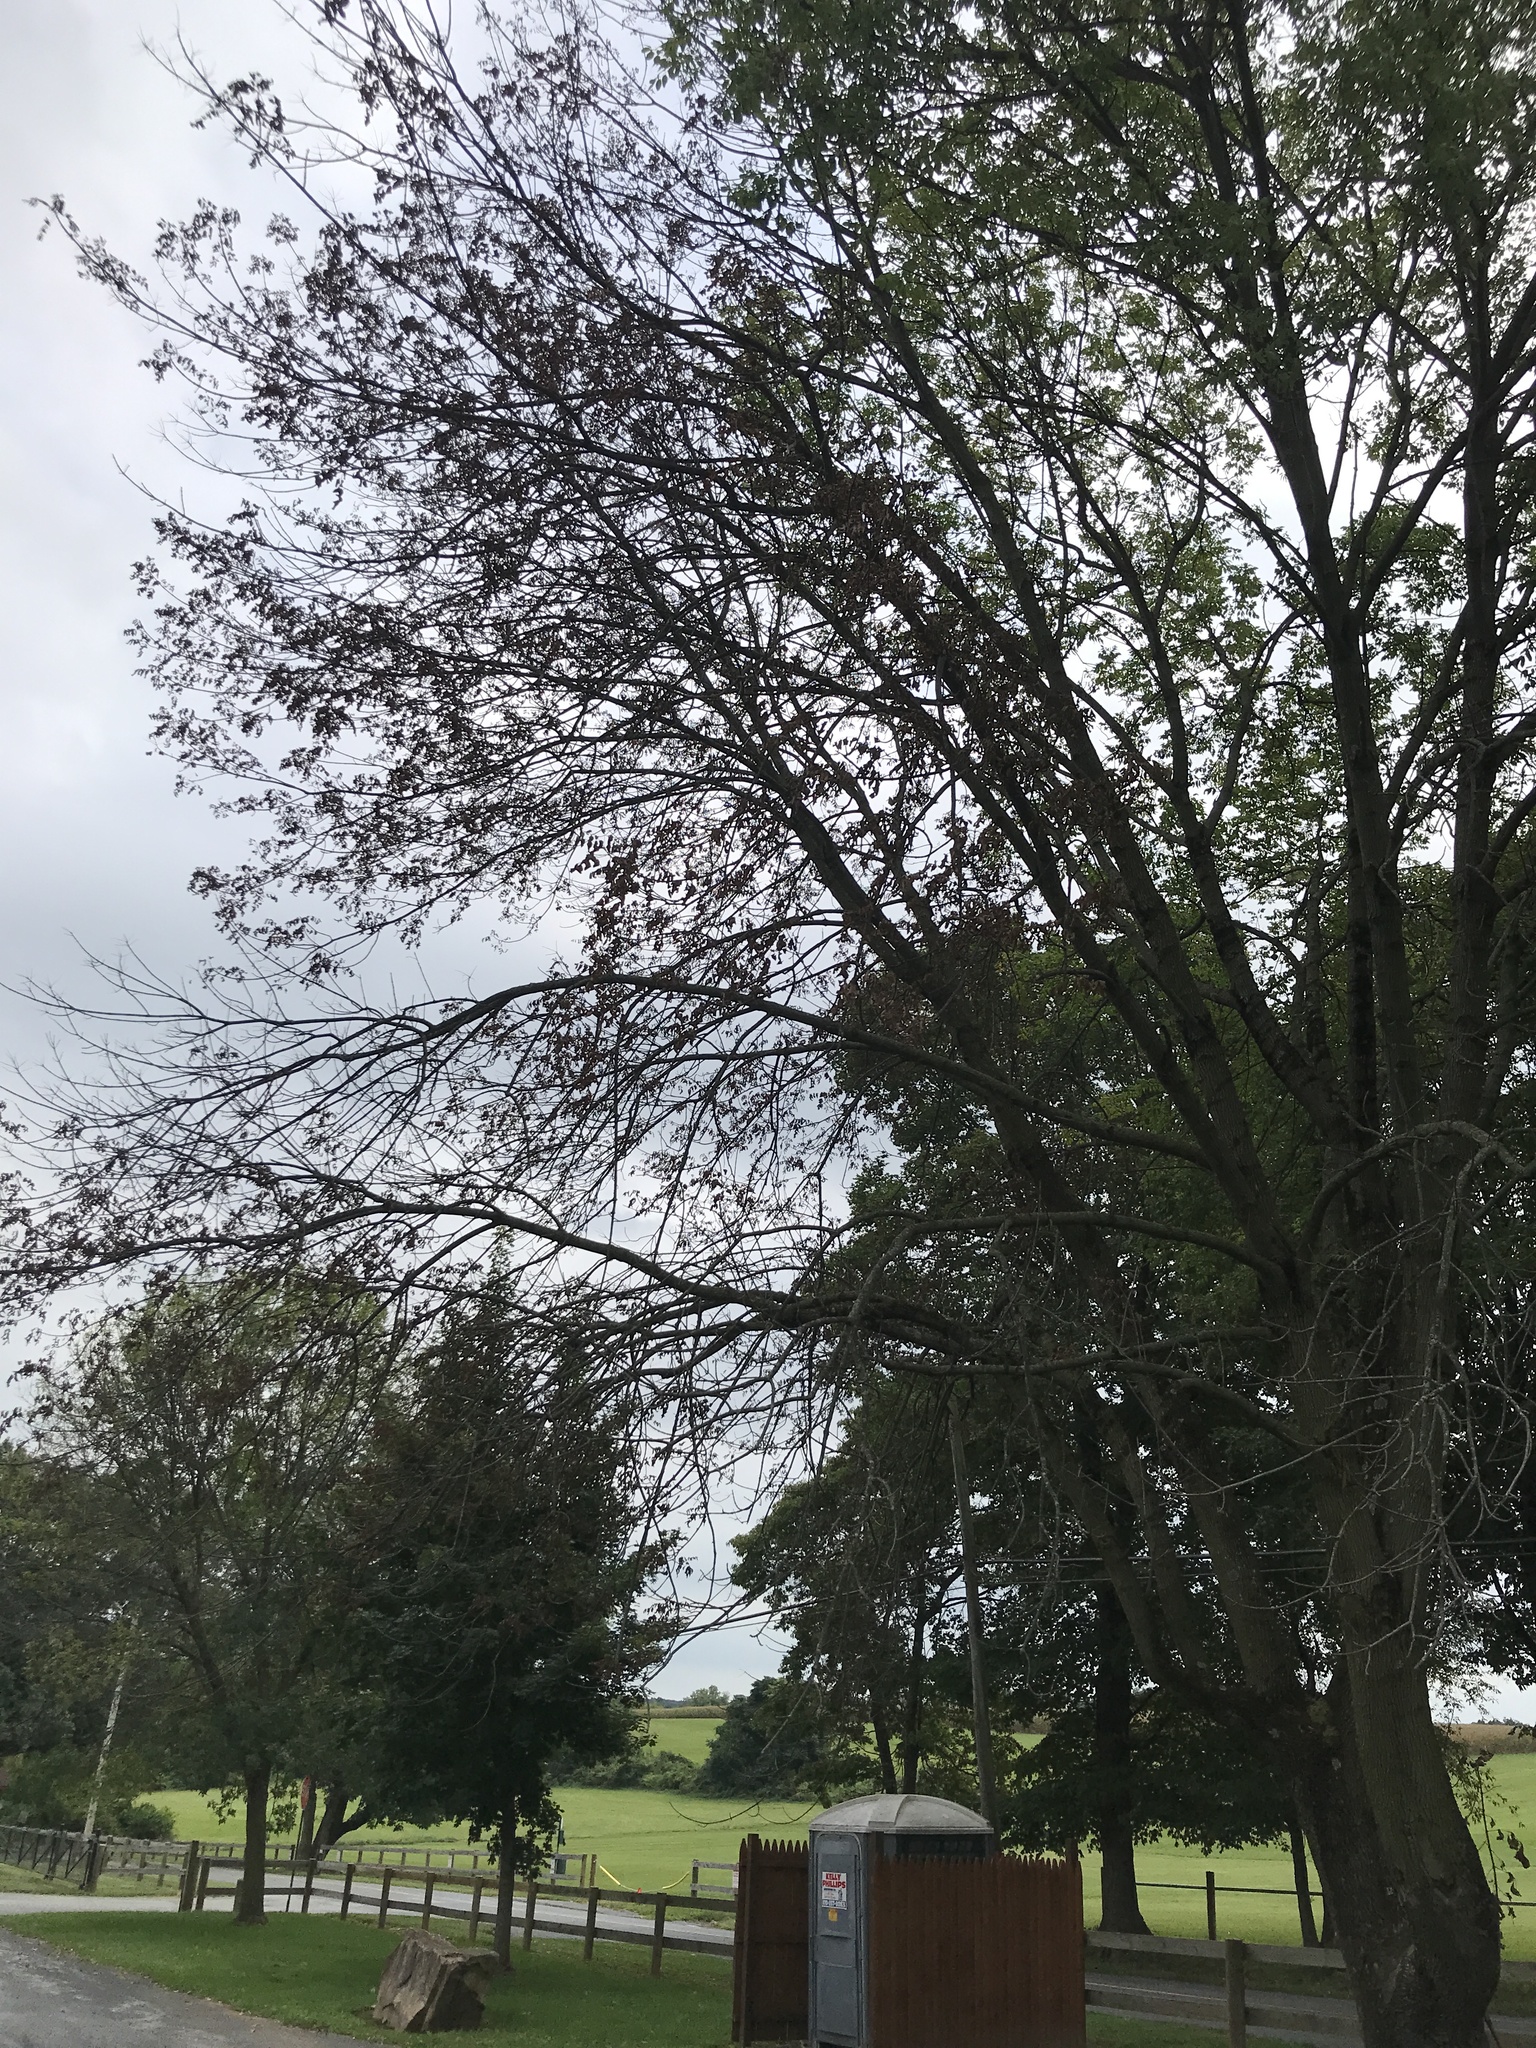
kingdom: Animalia
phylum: Arthropoda
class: Insecta
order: Coleoptera
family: Buprestidae
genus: Agrilus
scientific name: Agrilus planipennis
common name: Emerald ash borer
